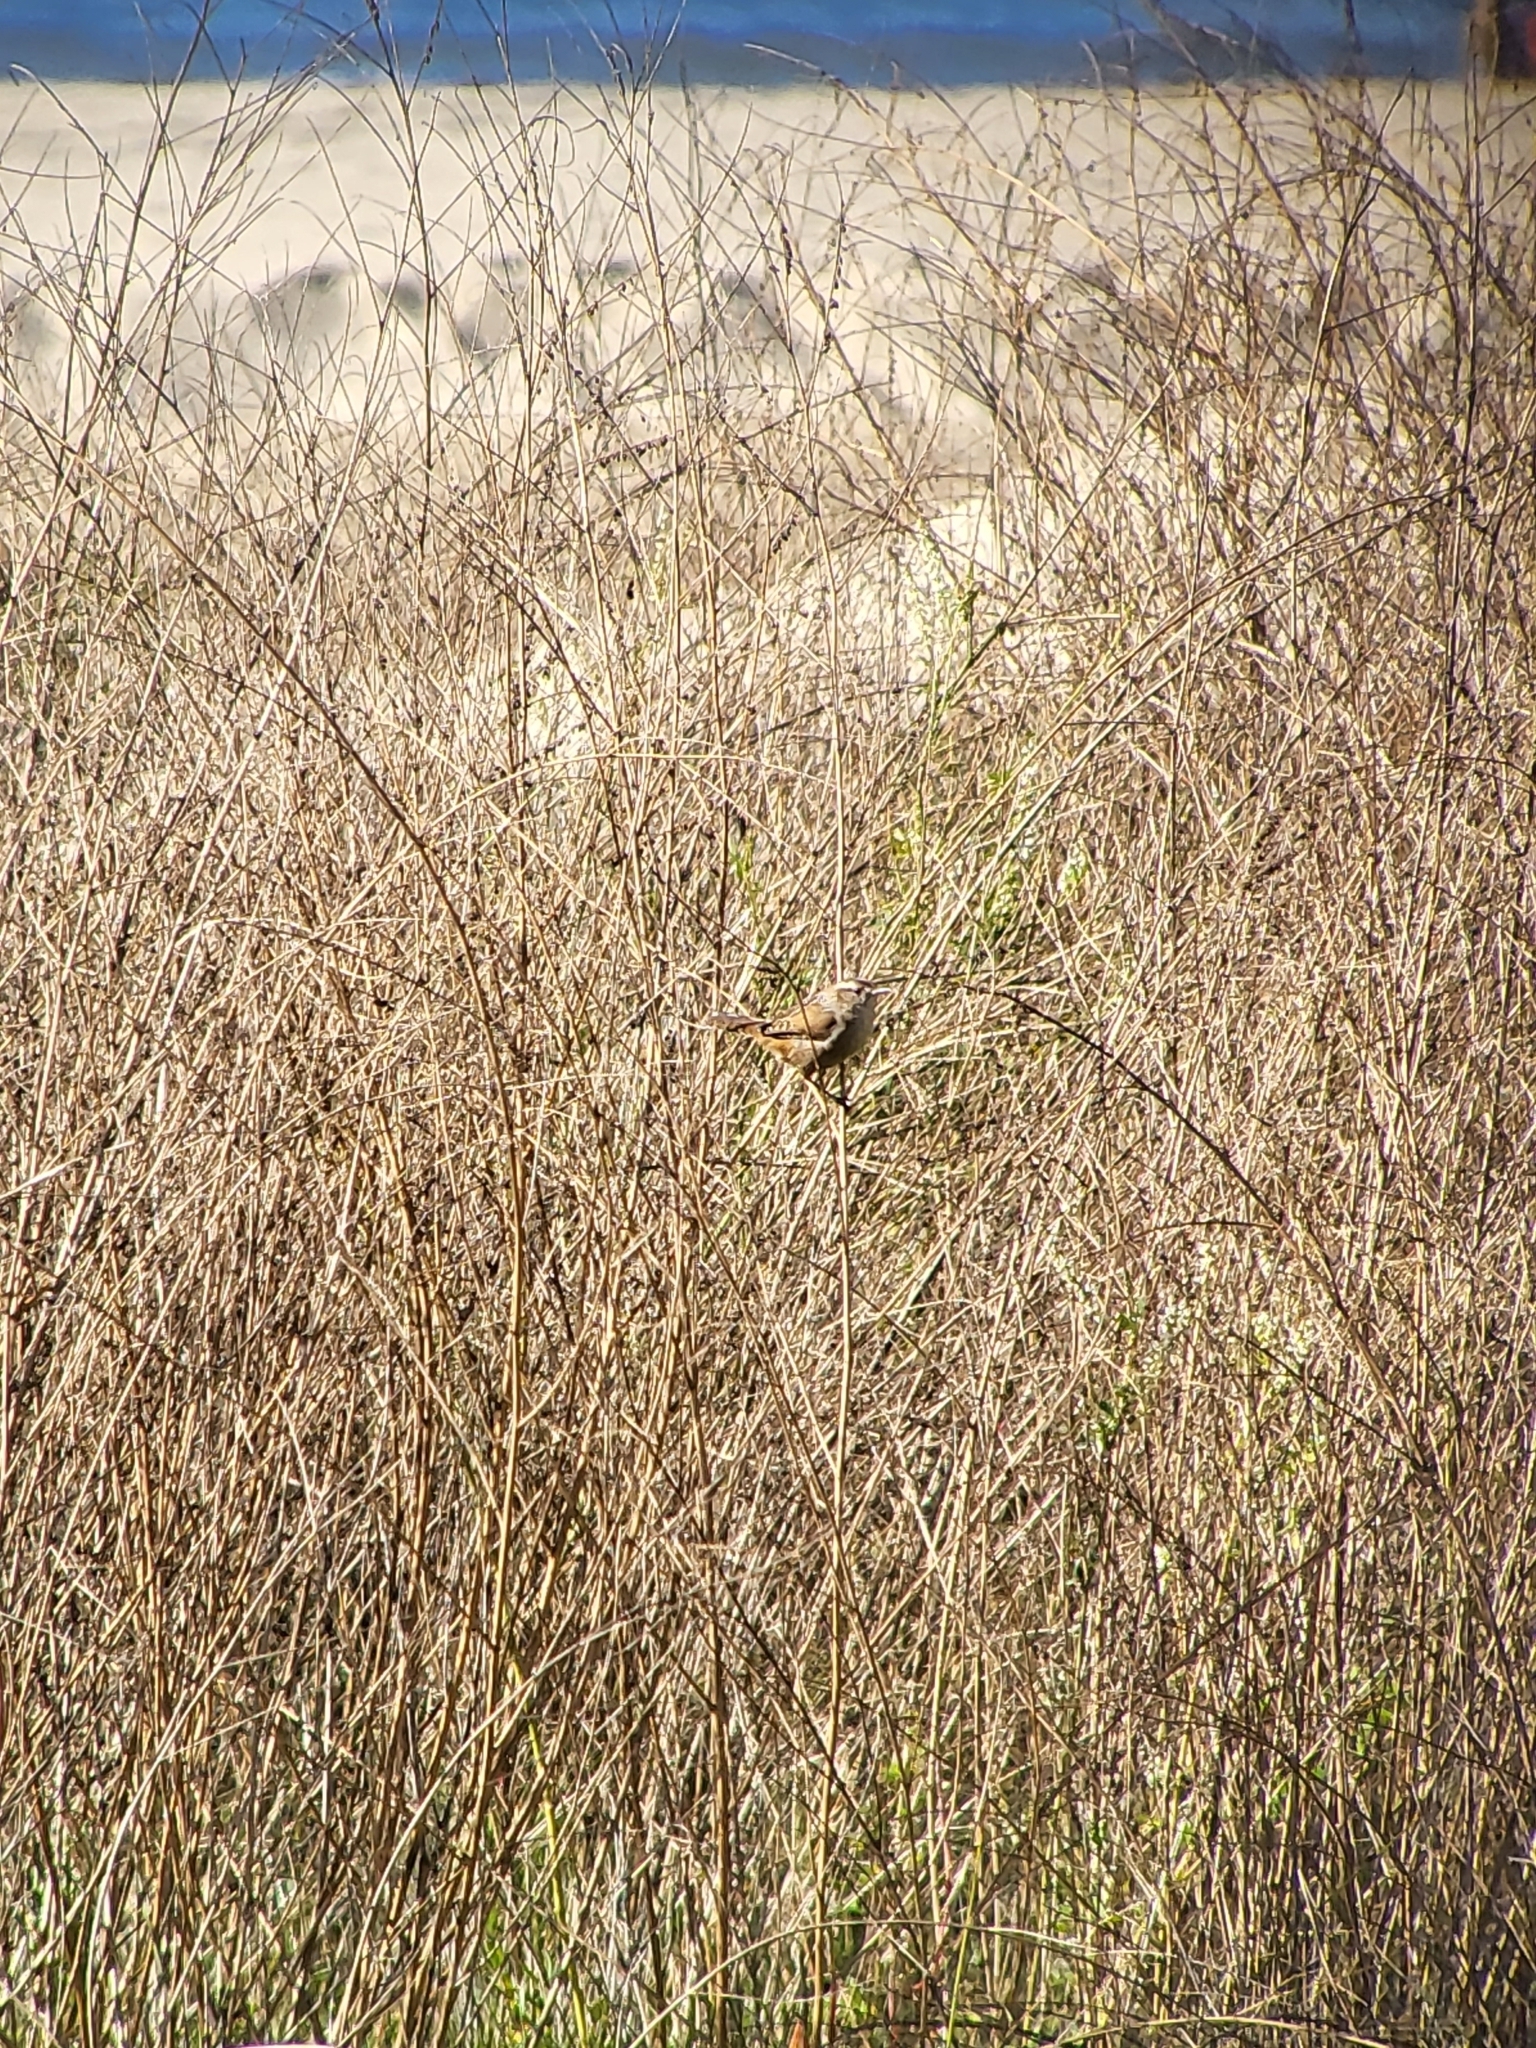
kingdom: Animalia
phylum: Chordata
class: Aves
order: Passeriformes
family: Troglodytidae
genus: Cistothorus
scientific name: Cistothorus palustris
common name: Marsh wren
